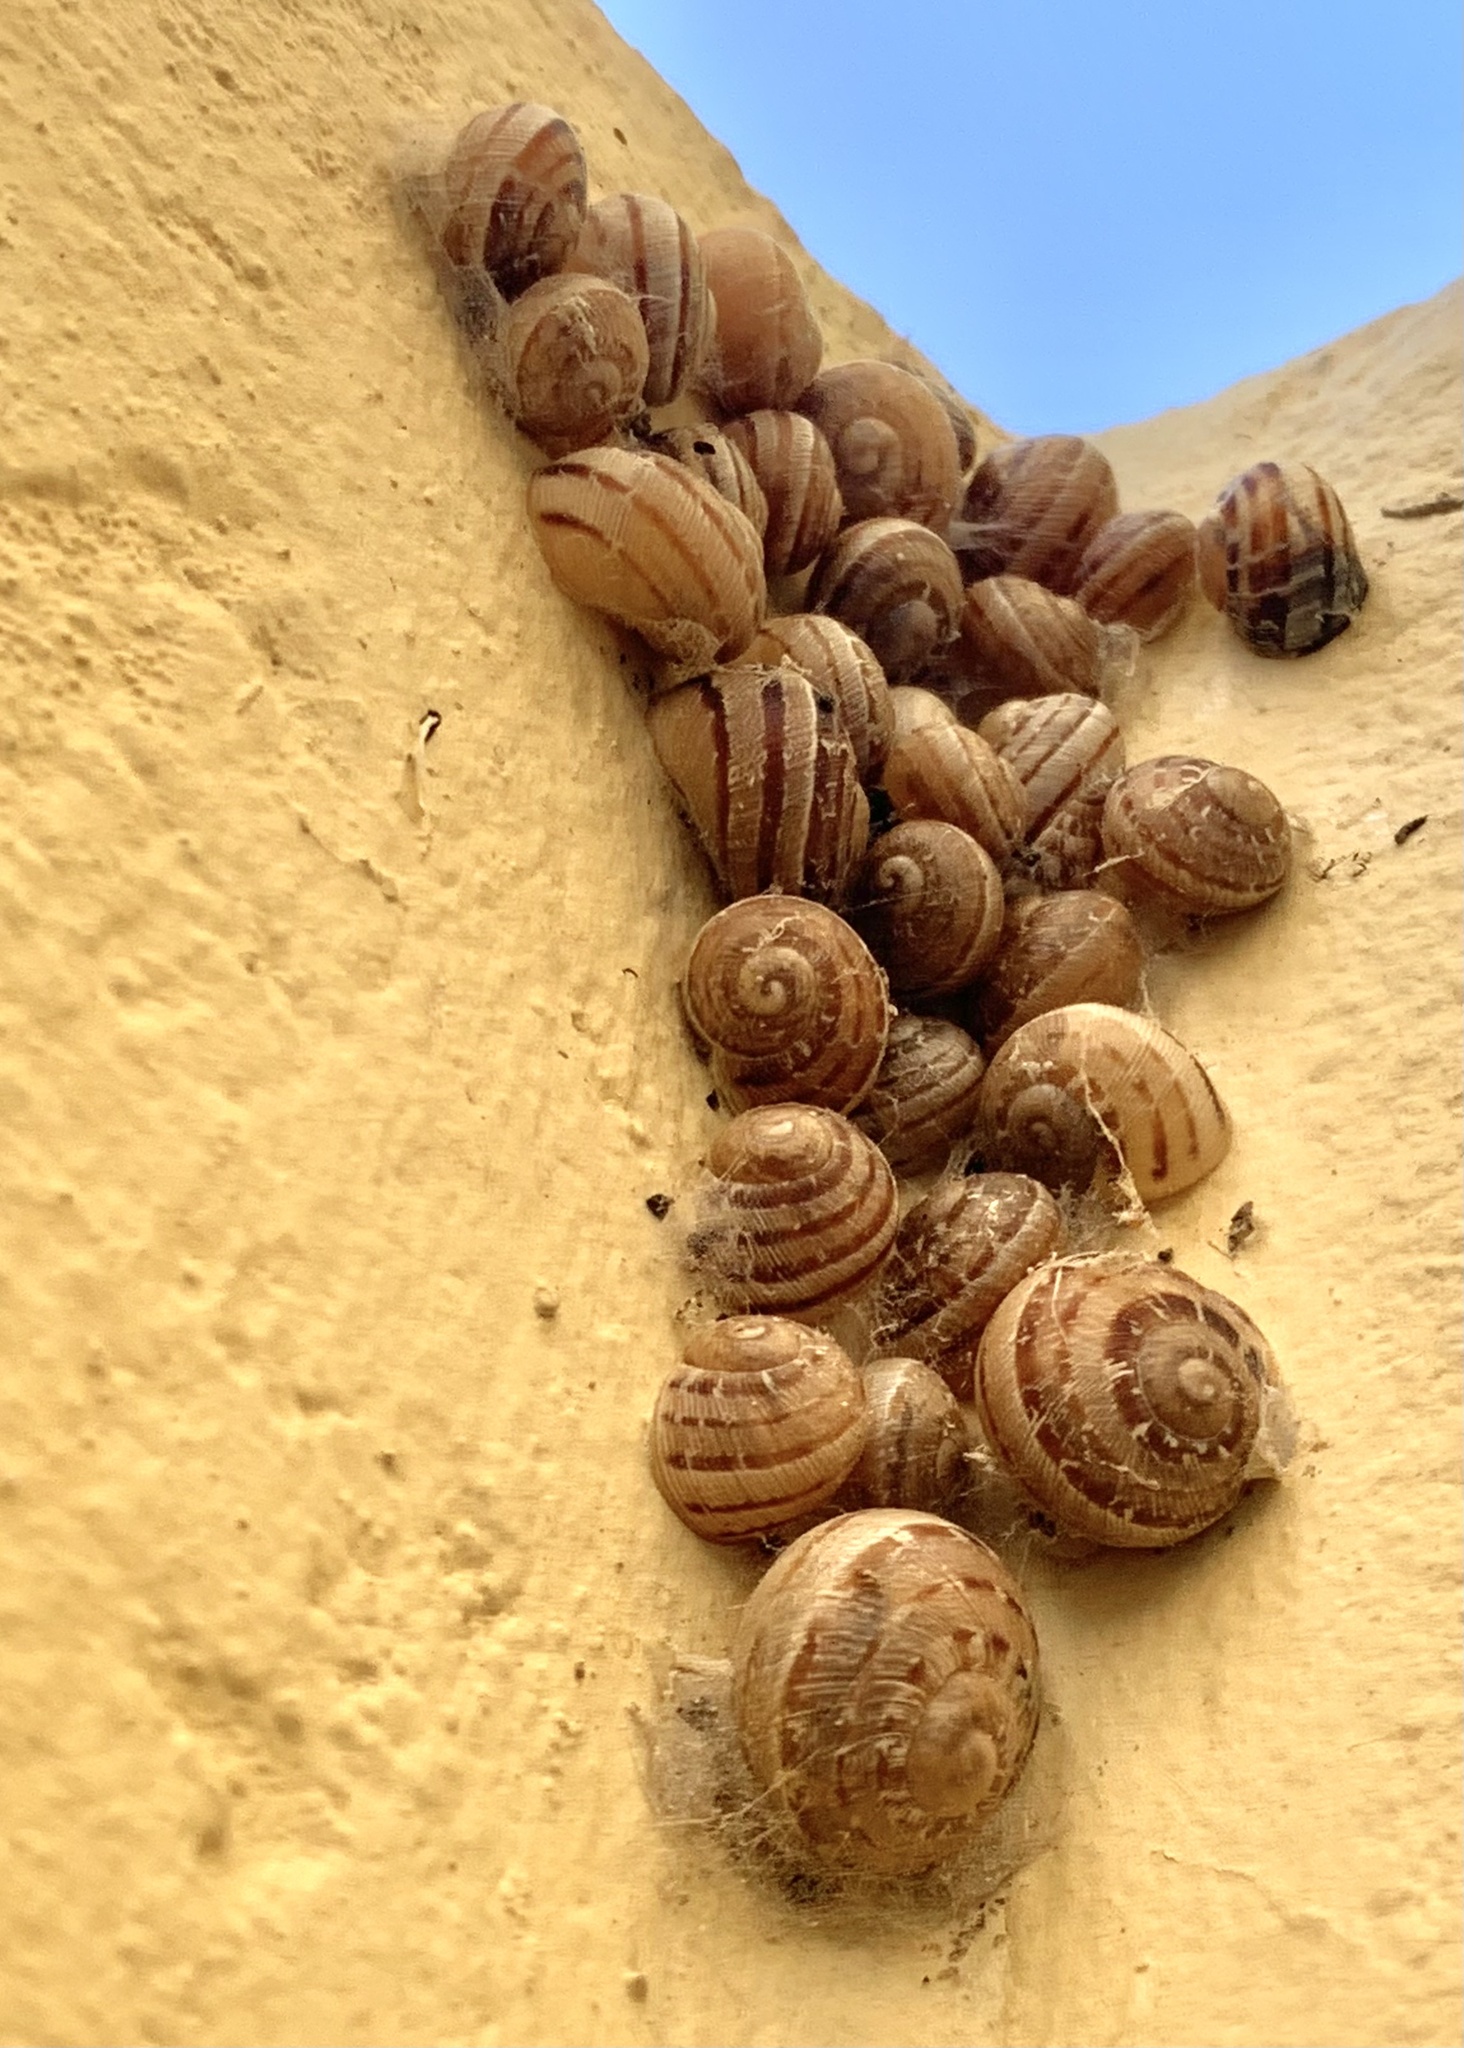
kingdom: Animalia
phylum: Mollusca
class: Gastropoda
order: Stylommatophora
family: Helicidae
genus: Eobania
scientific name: Eobania vermiculata
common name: Chocolateband snail
